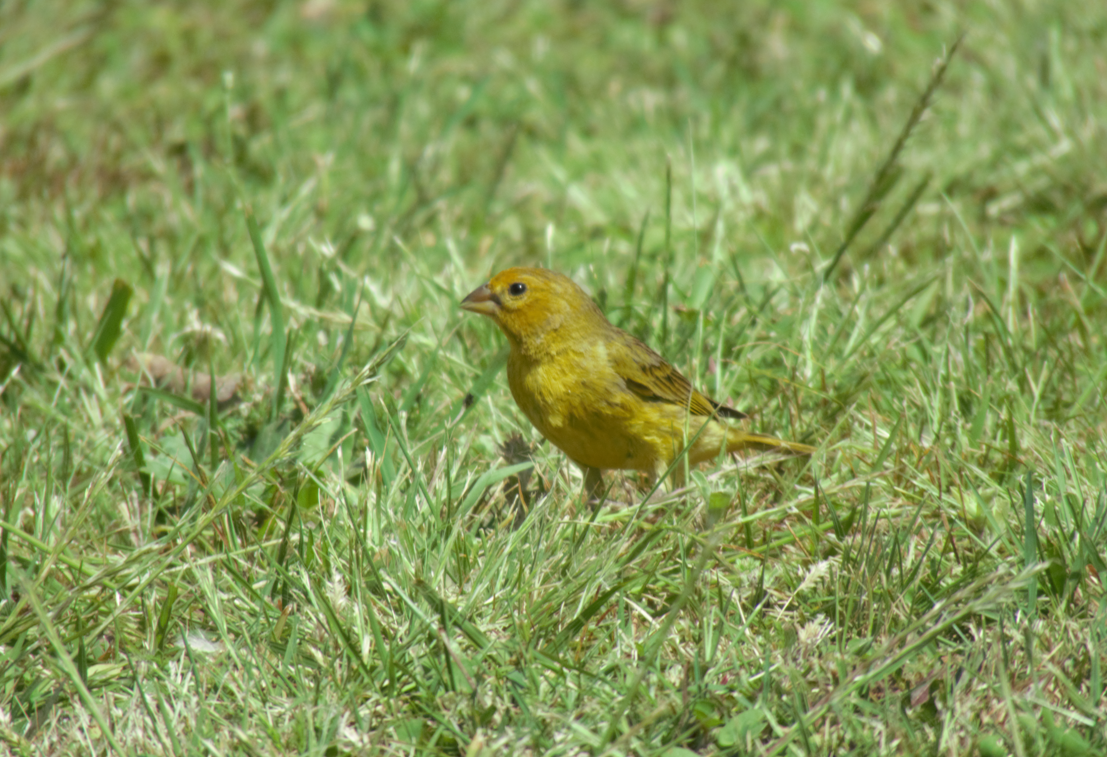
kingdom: Animalia
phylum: Chordata
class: Aves
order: Passeriformes
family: Thraupidae
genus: Sicalis
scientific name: Sicalis flaveola
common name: Saffron finch
